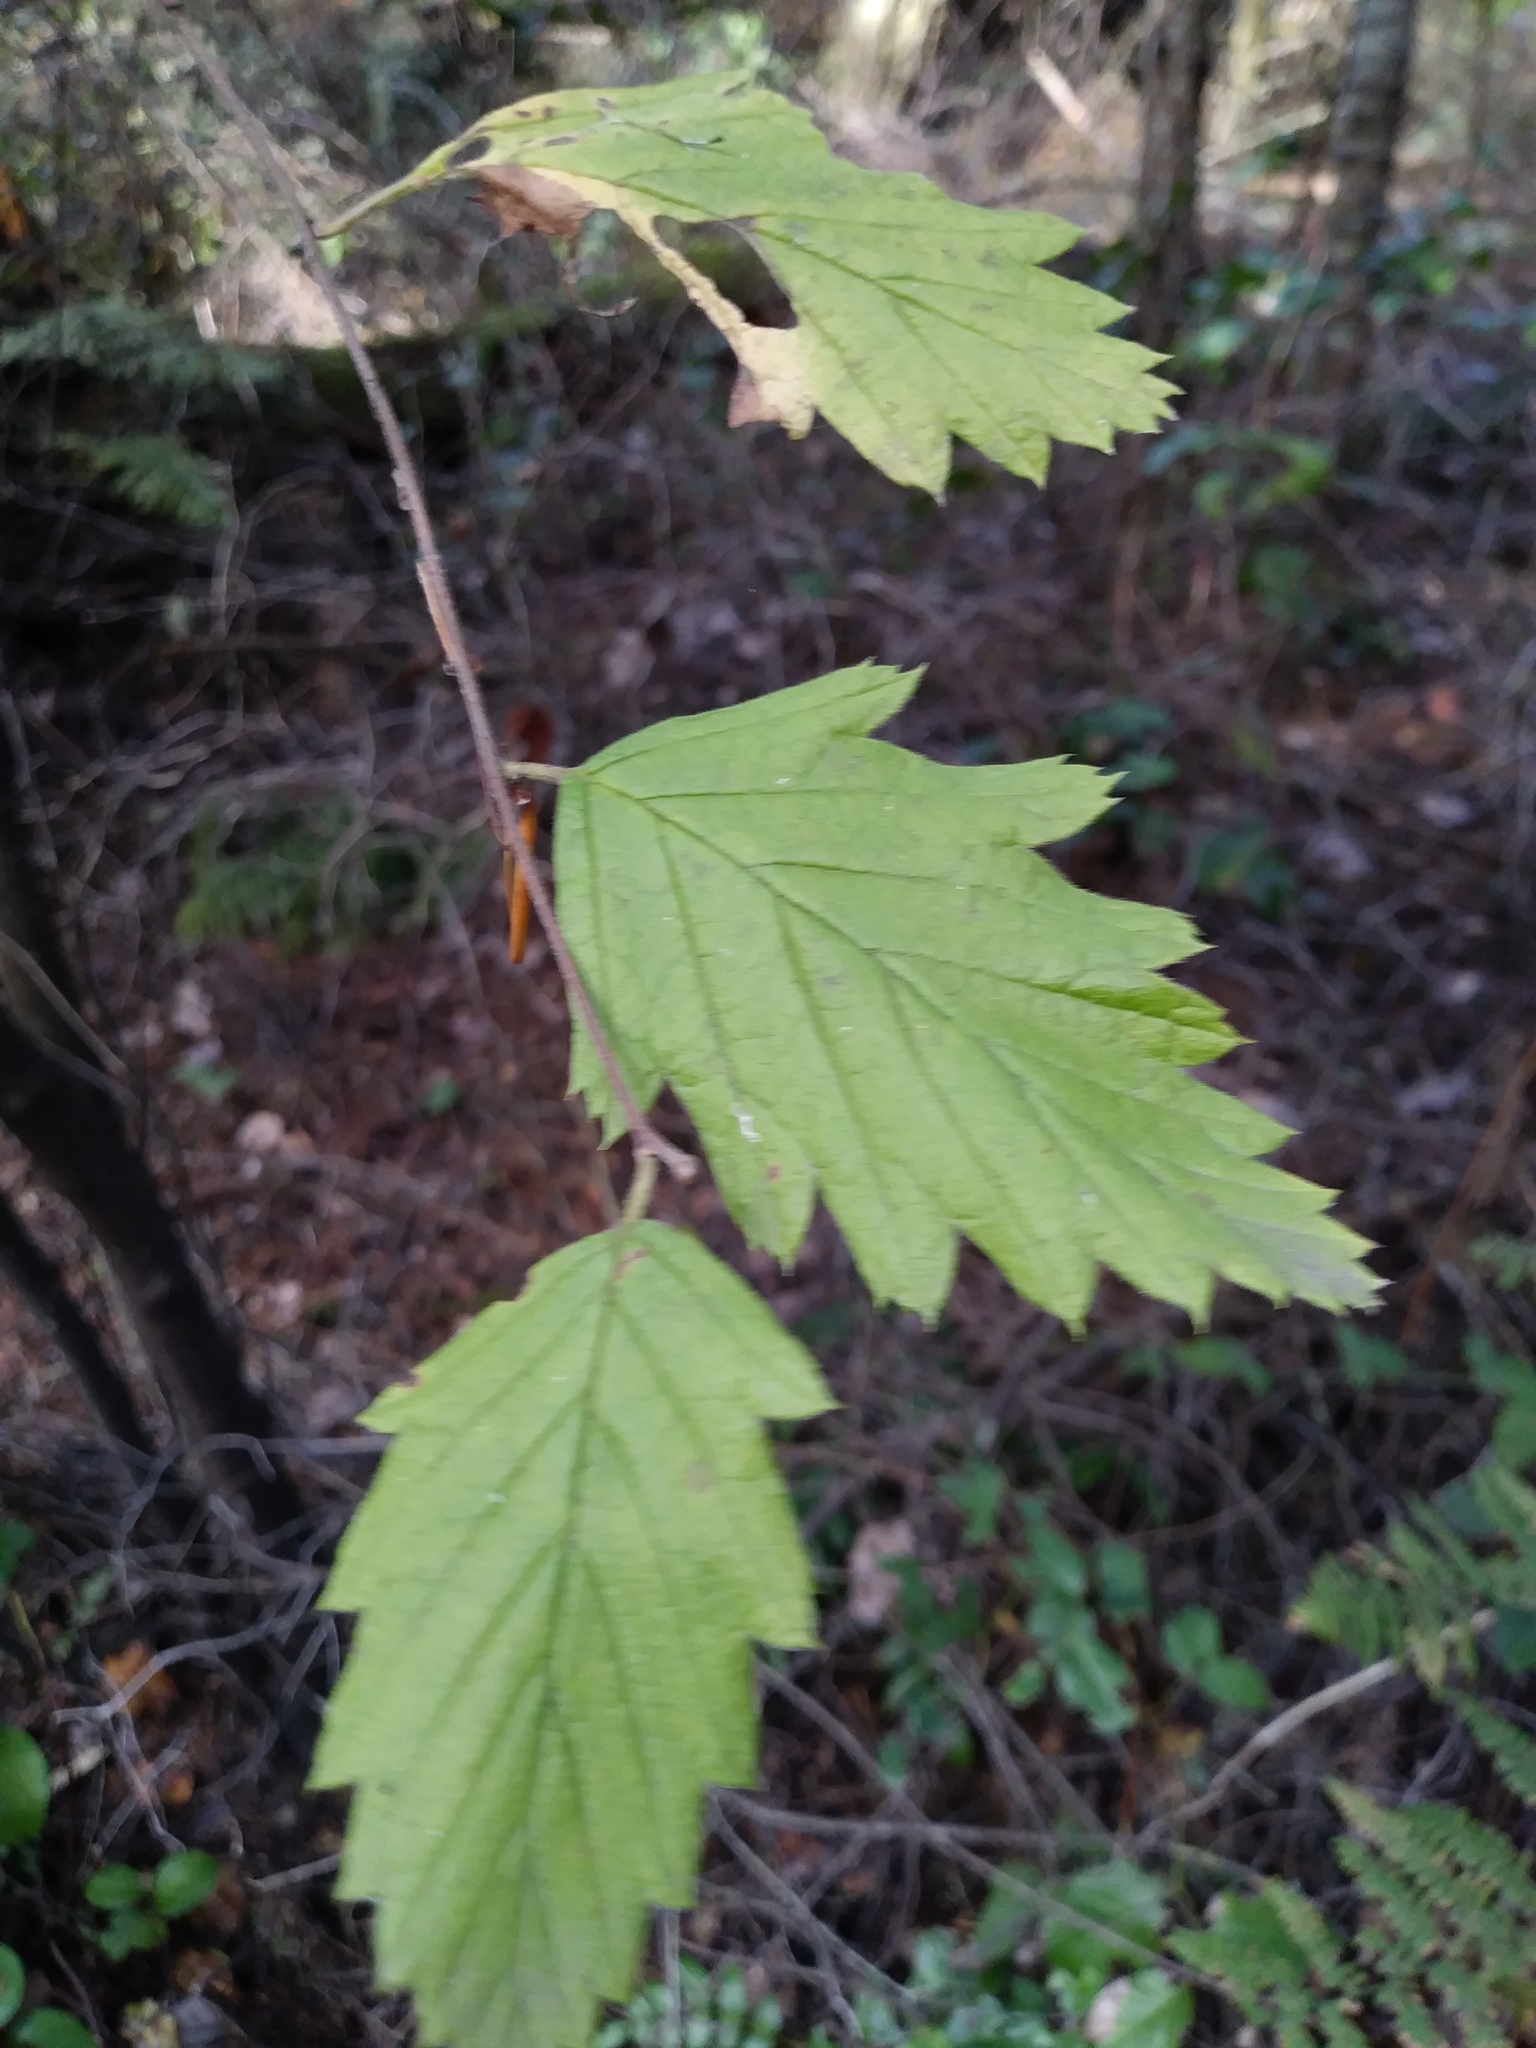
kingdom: Plantae
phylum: Tracheophyta
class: Magnoliopsida
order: Rosales
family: Rosaceae
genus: Holodiscus
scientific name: Holodiscus discolor
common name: Oceanspray
